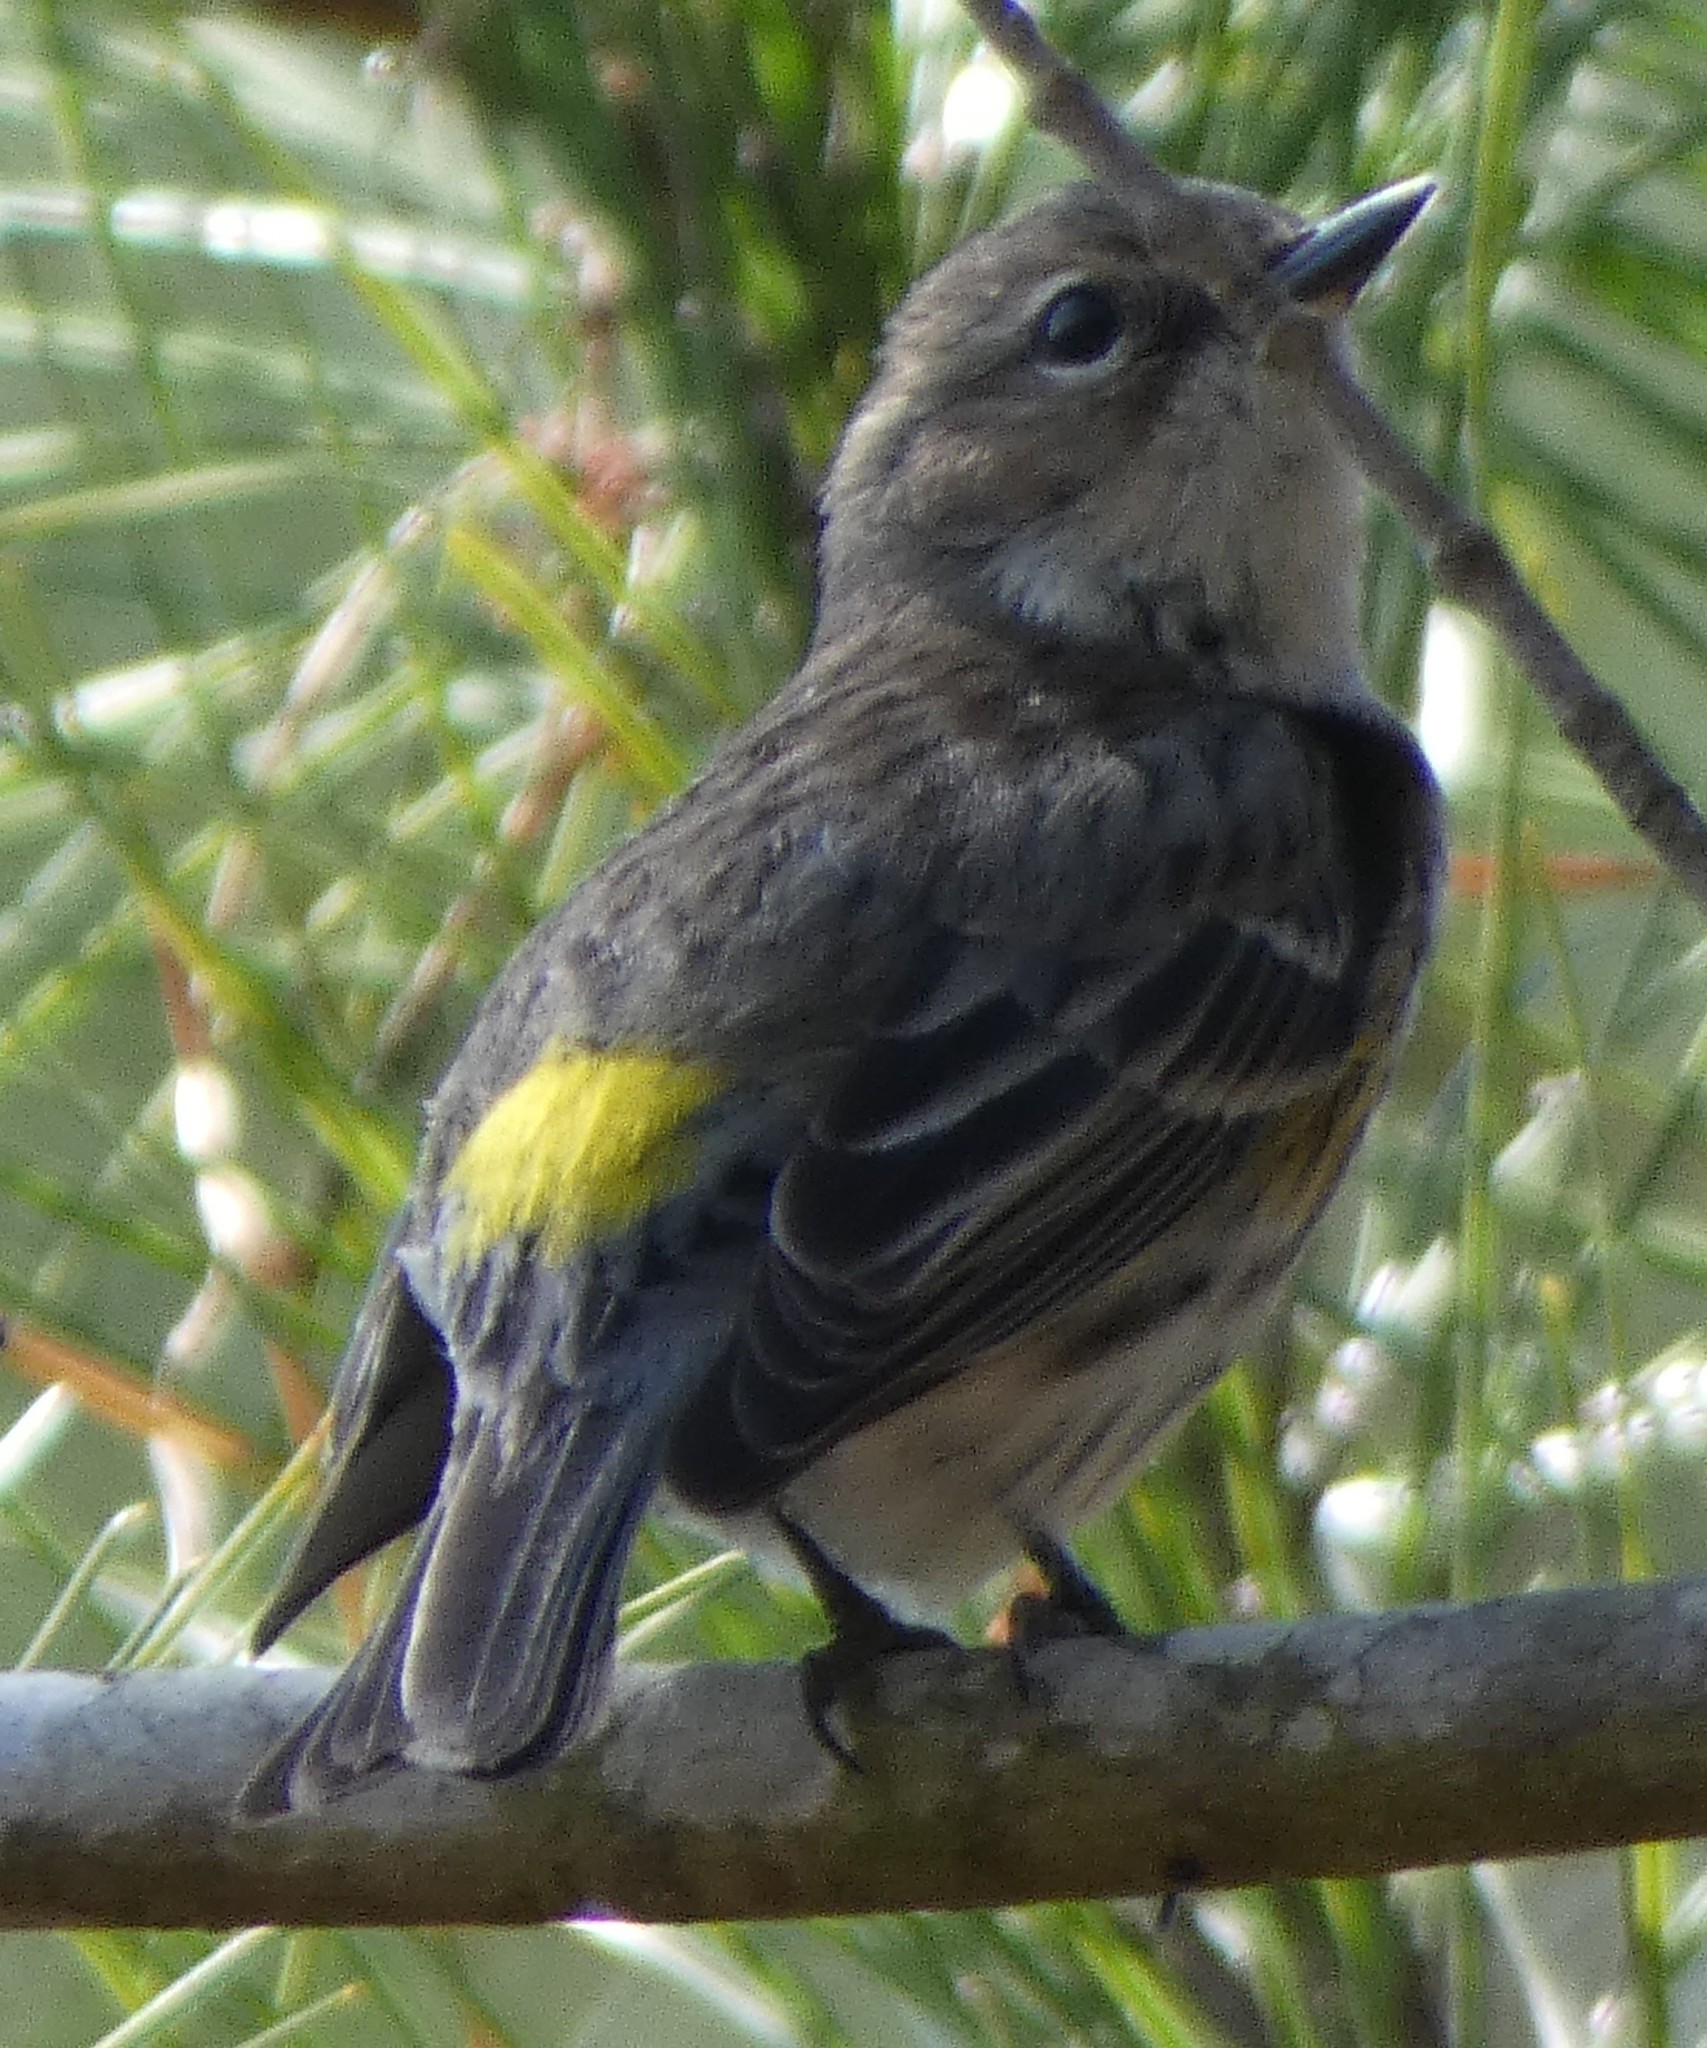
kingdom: Animalia
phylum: Chordata
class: Aves
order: Passeriformes
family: Parulidae
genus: Setophaga
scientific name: Setophaga coronata
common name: Myrtle warbler
